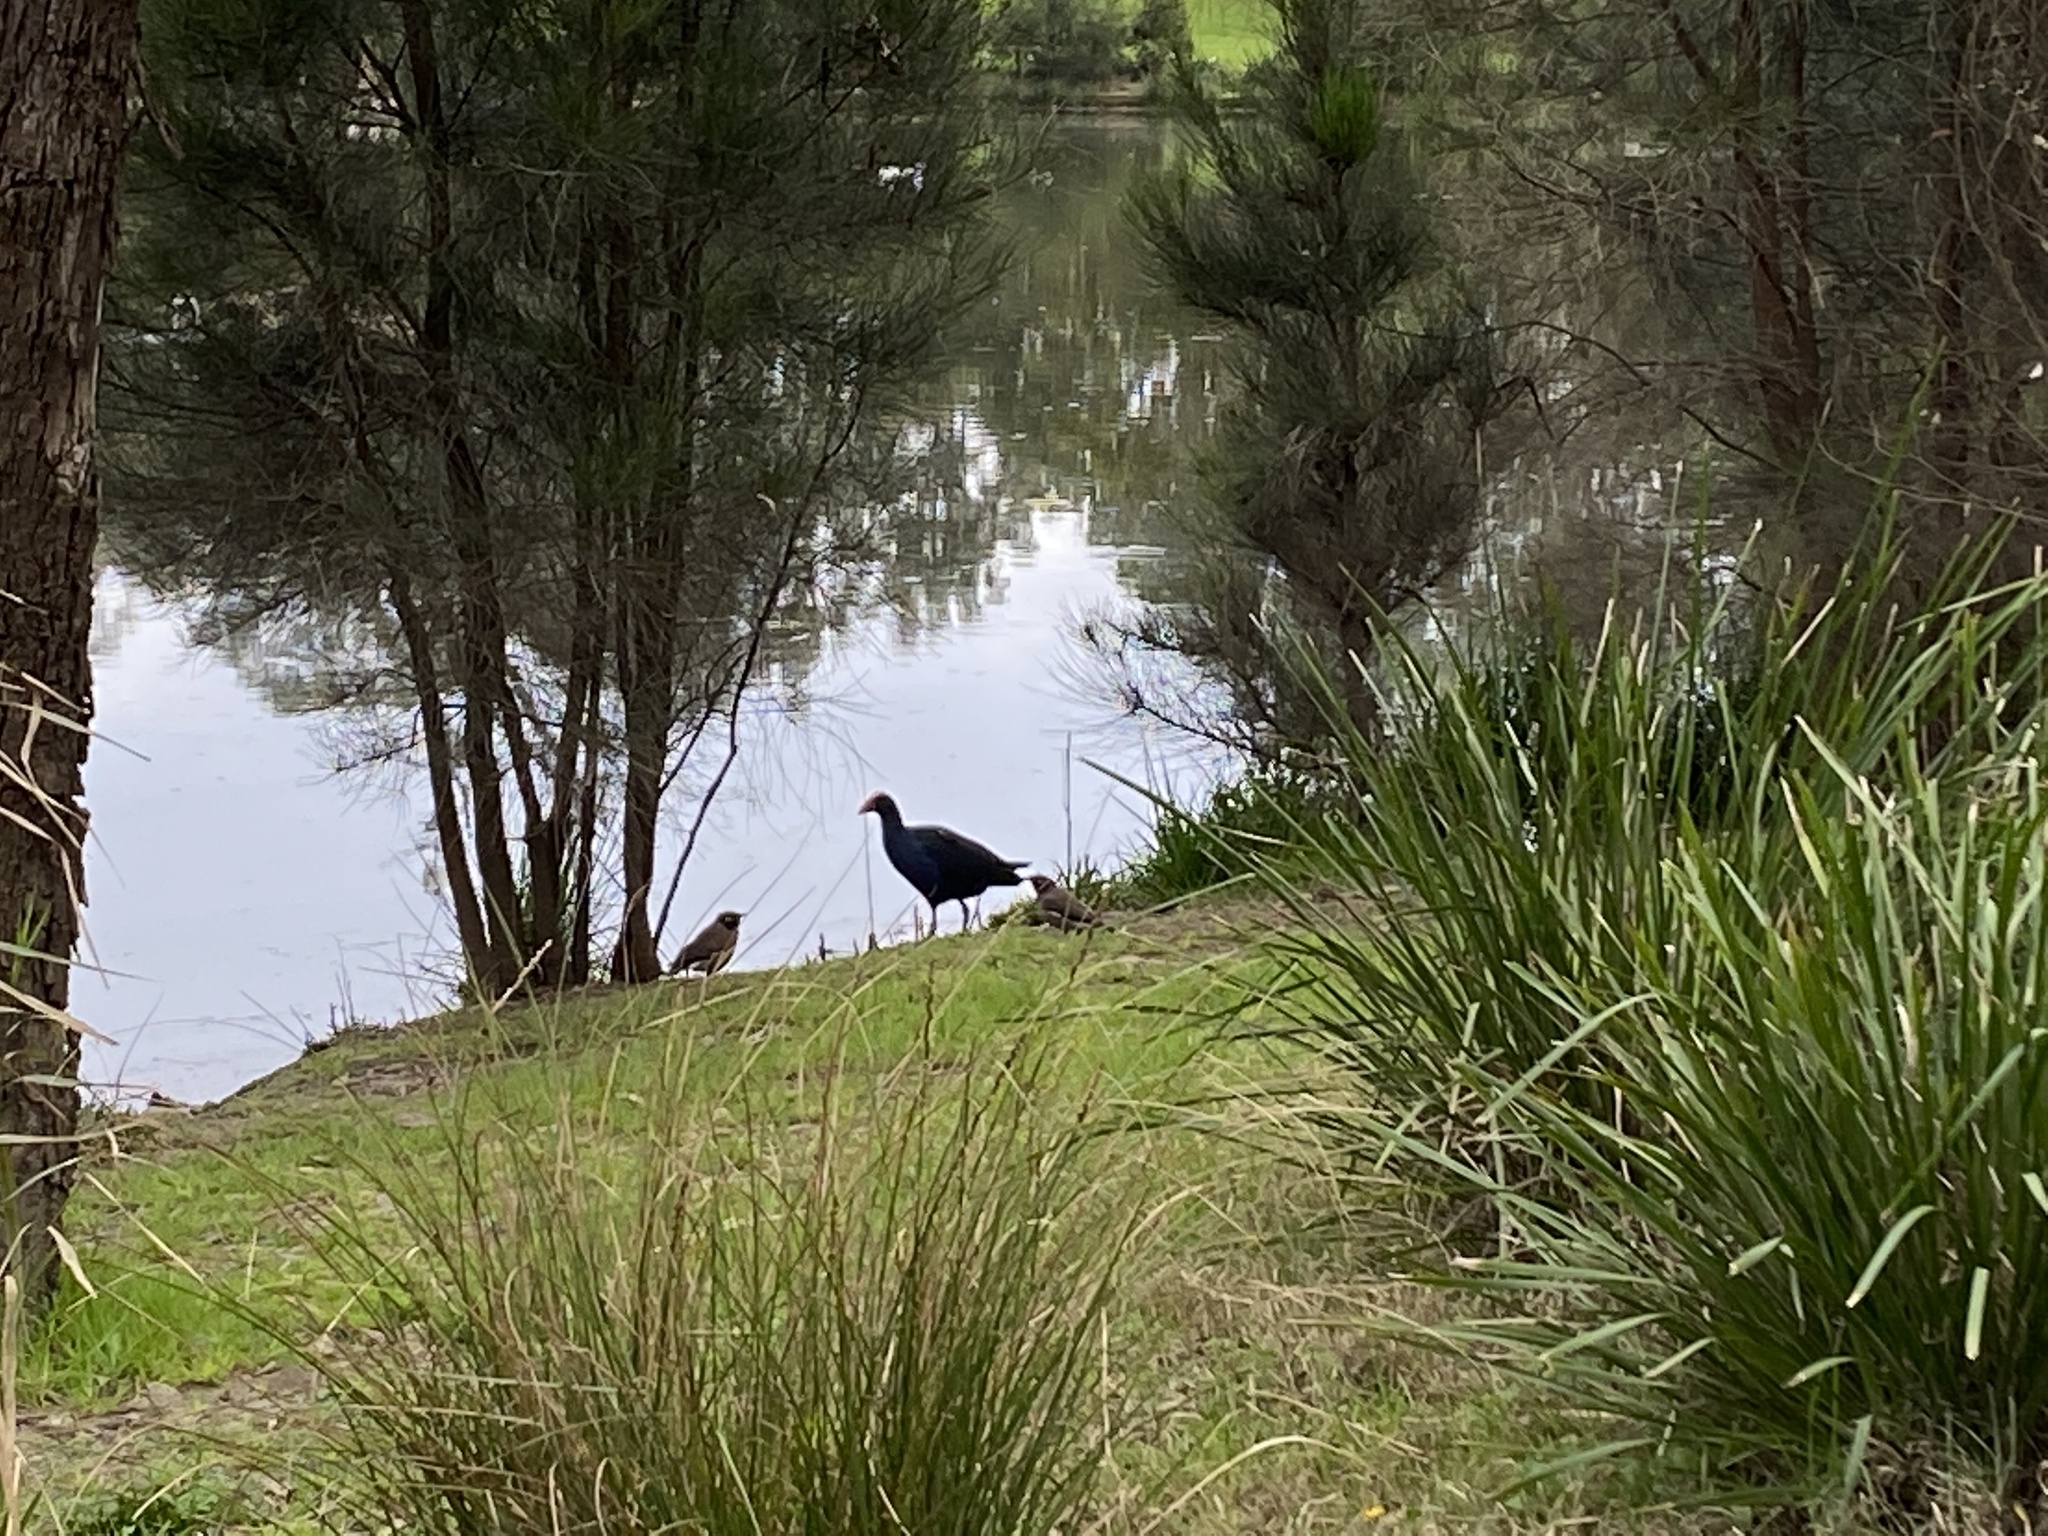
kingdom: Animalia
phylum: Chordata
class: Aves
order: Passeriformes
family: Sturnidae
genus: Acridotheres
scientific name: Acridotheres tristis
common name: Common myna
